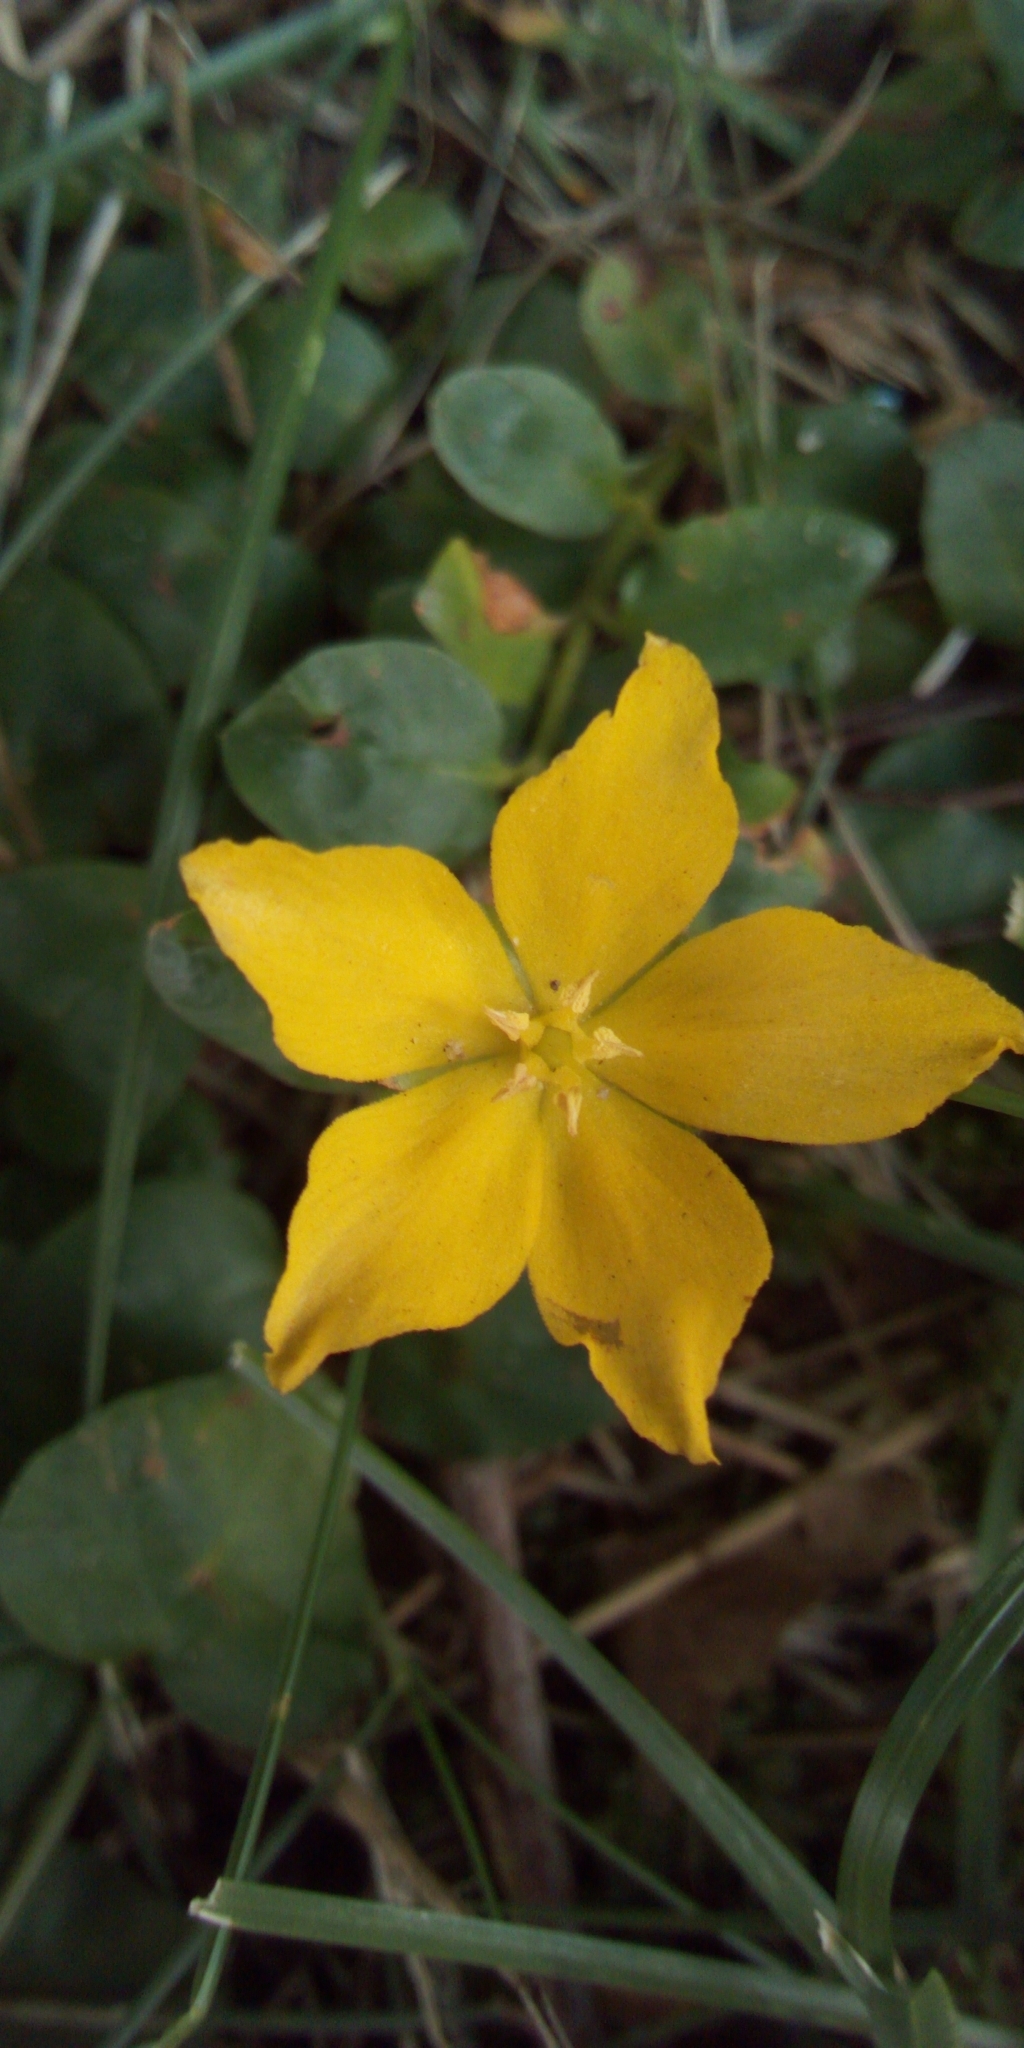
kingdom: Plantae
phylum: Tracheophyta
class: Magnoliopsida
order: Ericales
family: Primulaceae
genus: Lysimachia
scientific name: Lysimachia nummularia
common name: Moneywort
